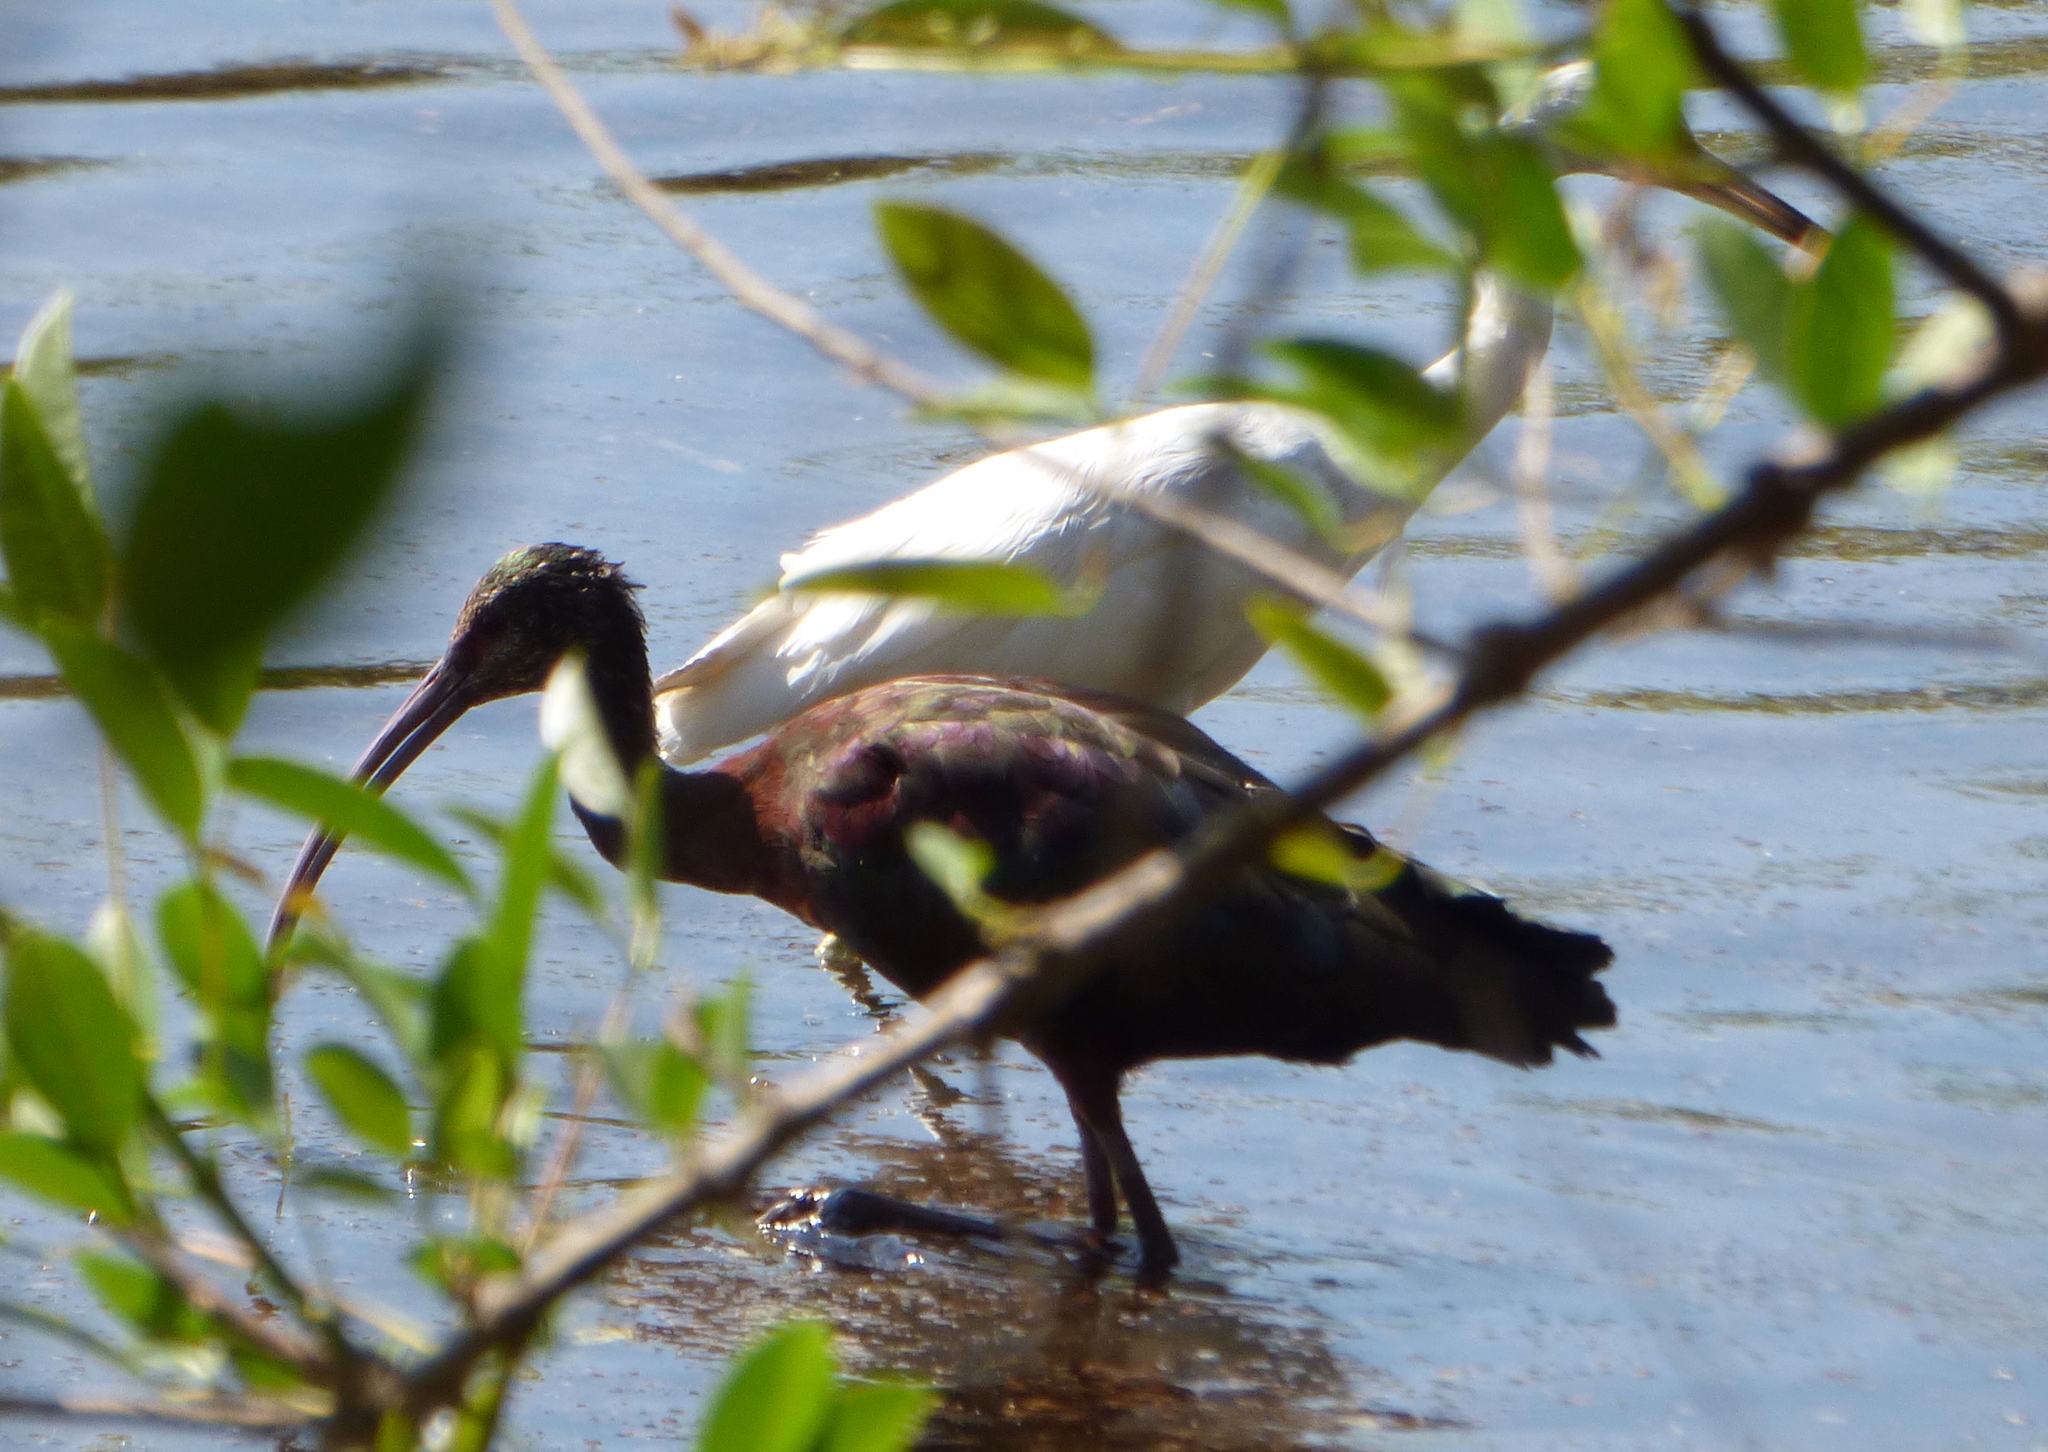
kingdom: Animalia
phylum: Chordata
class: Aves
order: Pelecaniformes
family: Threskiornithidae
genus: Plegadis
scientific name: Plegadis chihi
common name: White-faced ibis
